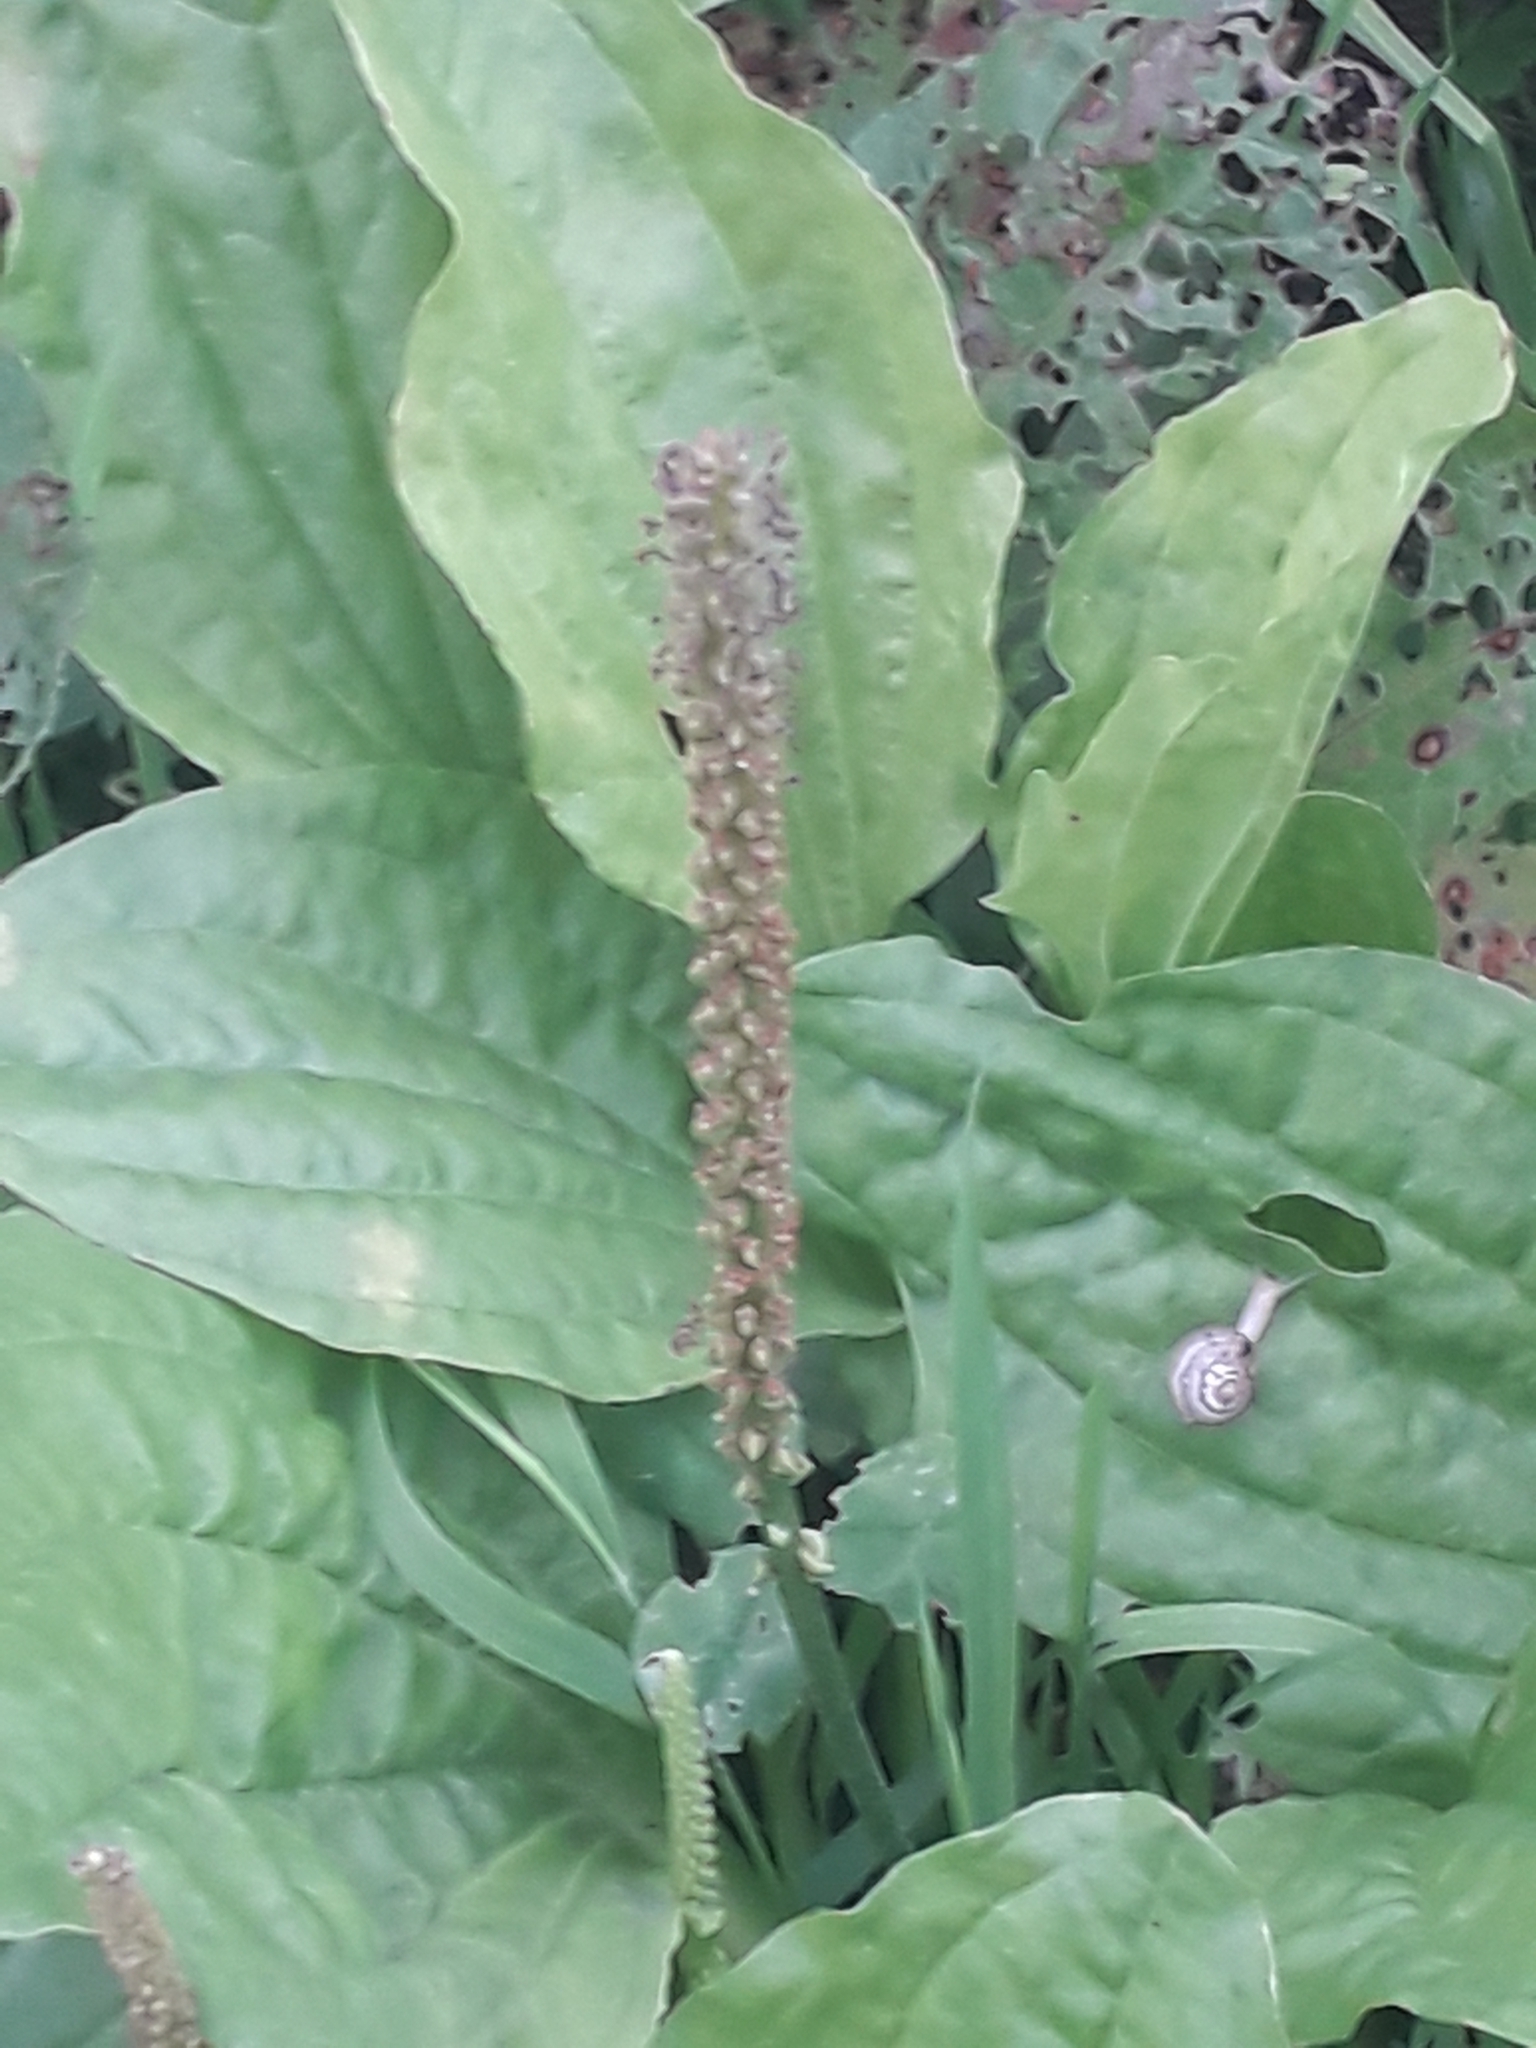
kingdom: Plantae
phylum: Tracheophyta
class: Magnoliopsida
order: Lamiales
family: Plantaginaceae
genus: Plantago
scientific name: Plantago major
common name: Common plantain
